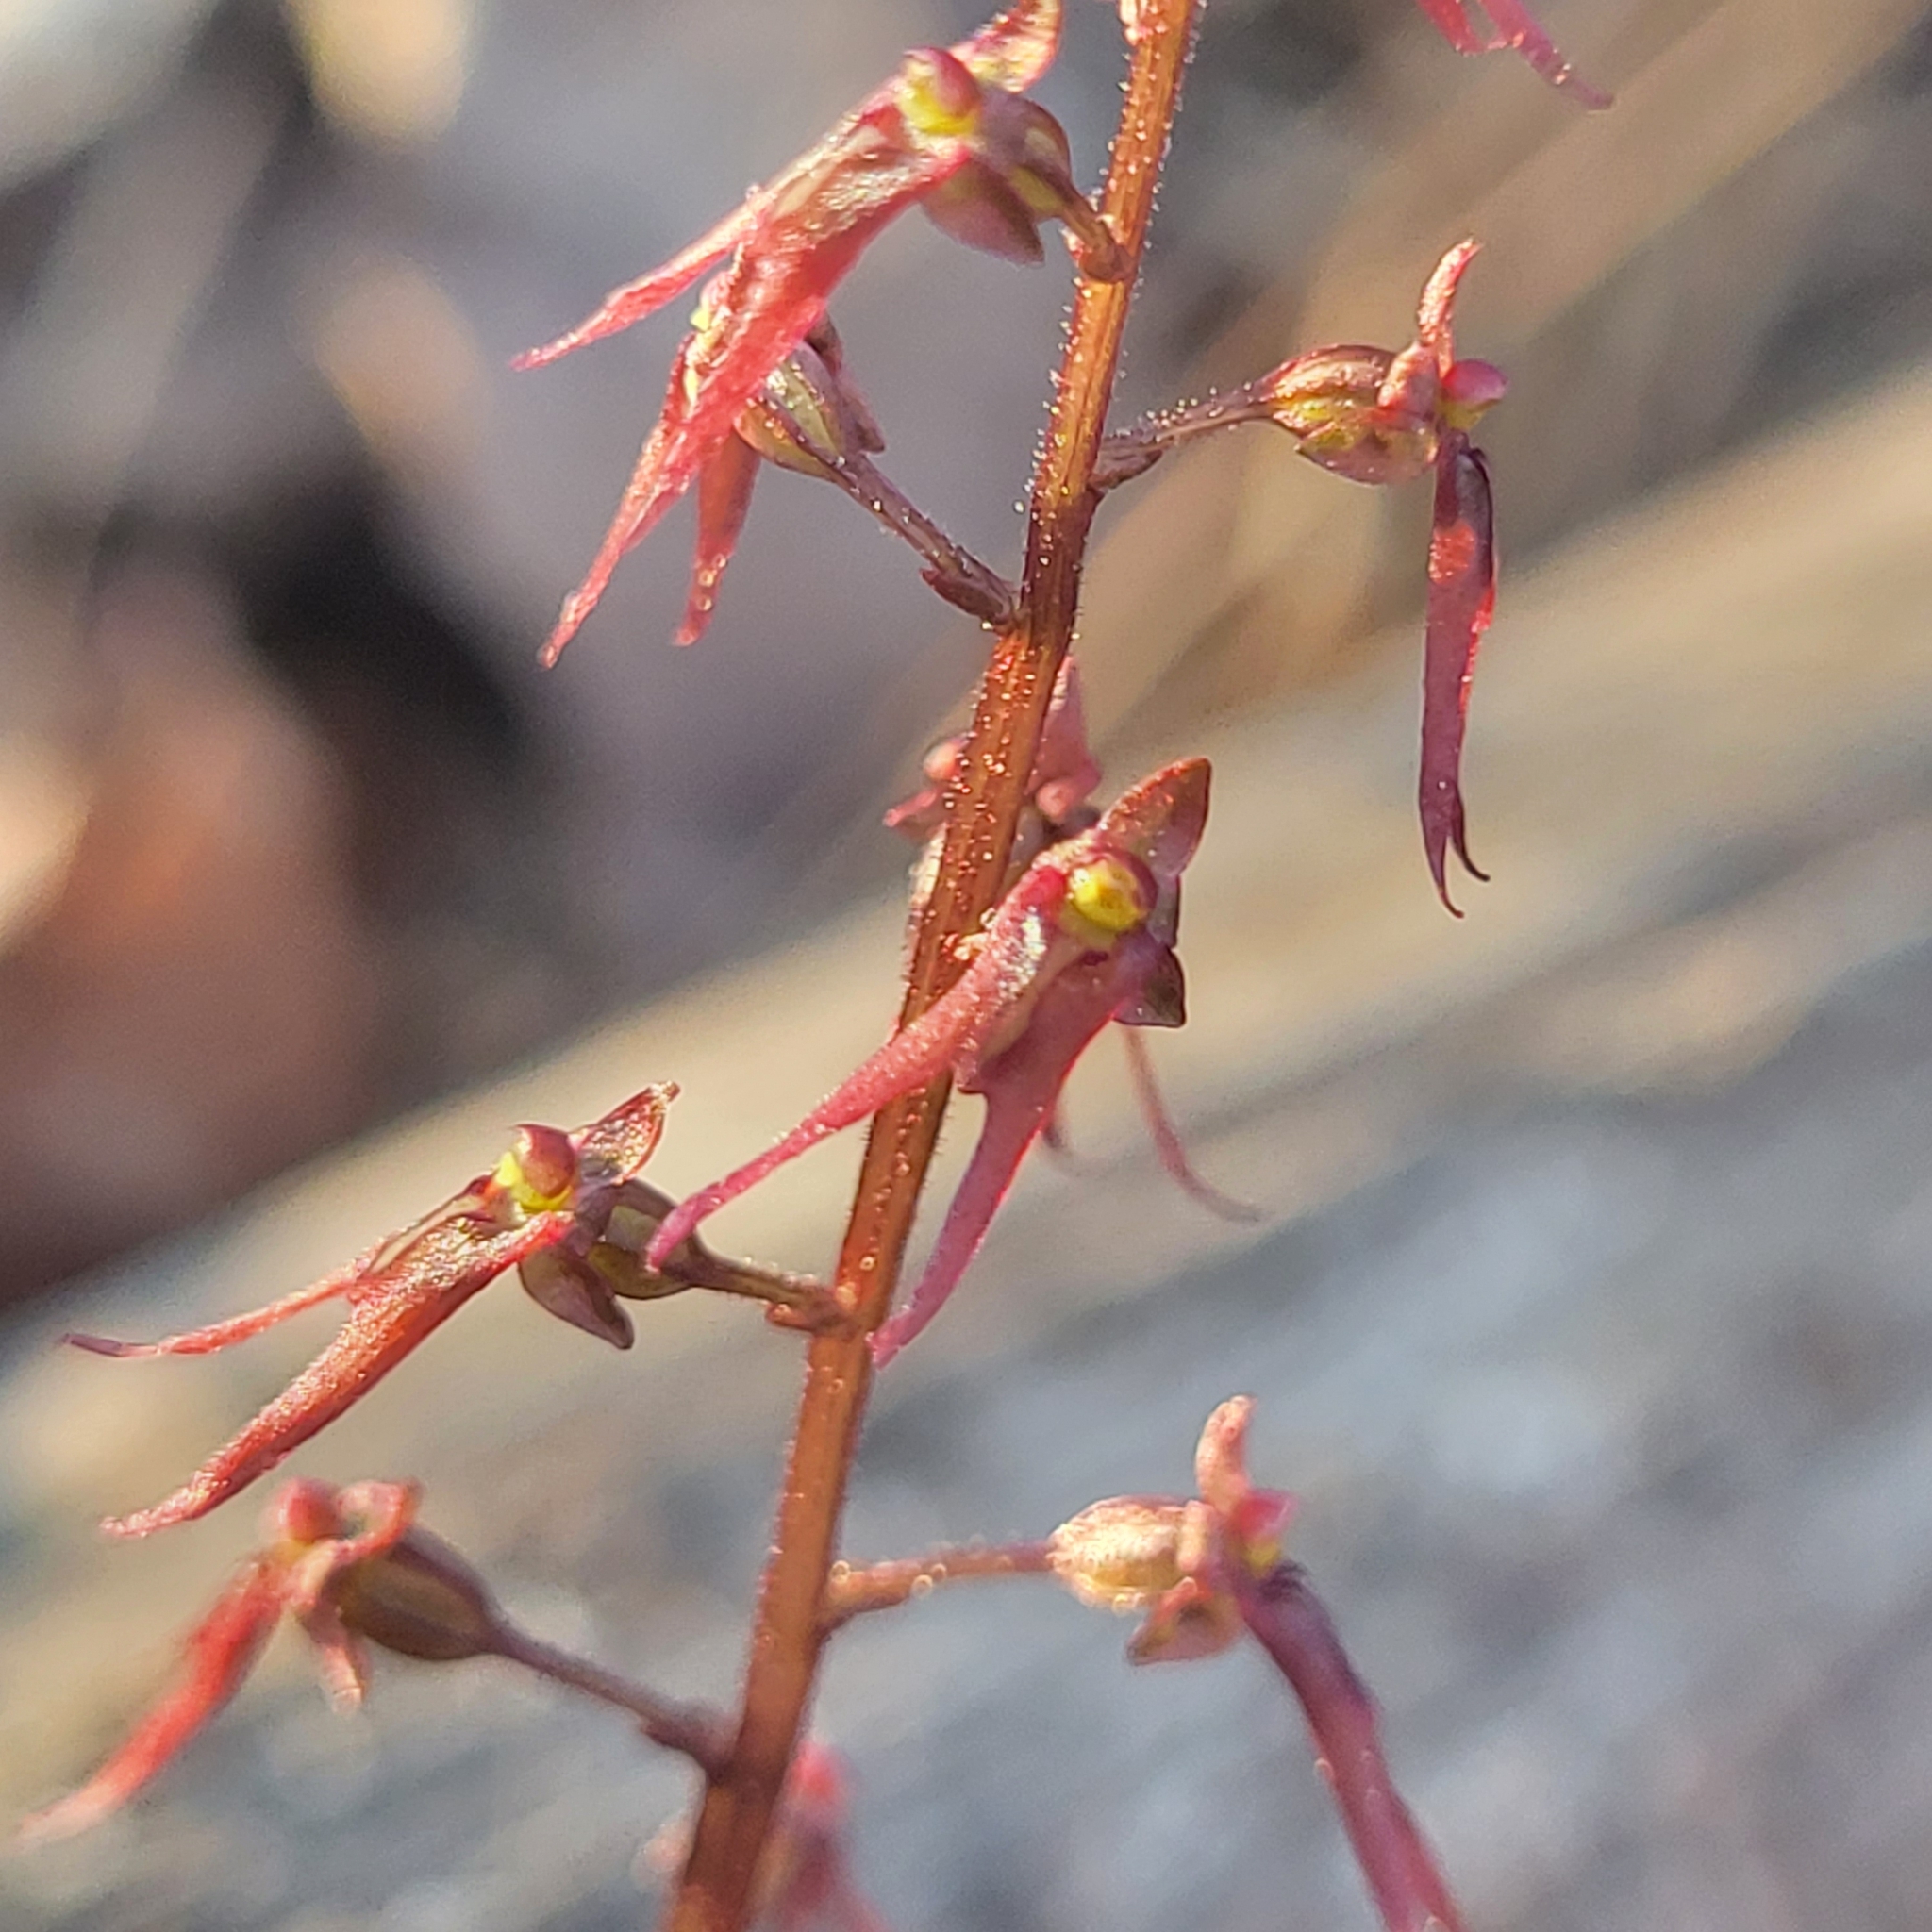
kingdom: Plantae
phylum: Tracheophyta
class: Liliopsida
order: Asparagales
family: Orchidaceae
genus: Neottia
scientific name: Neottia bifolia
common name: Southern twayblade
